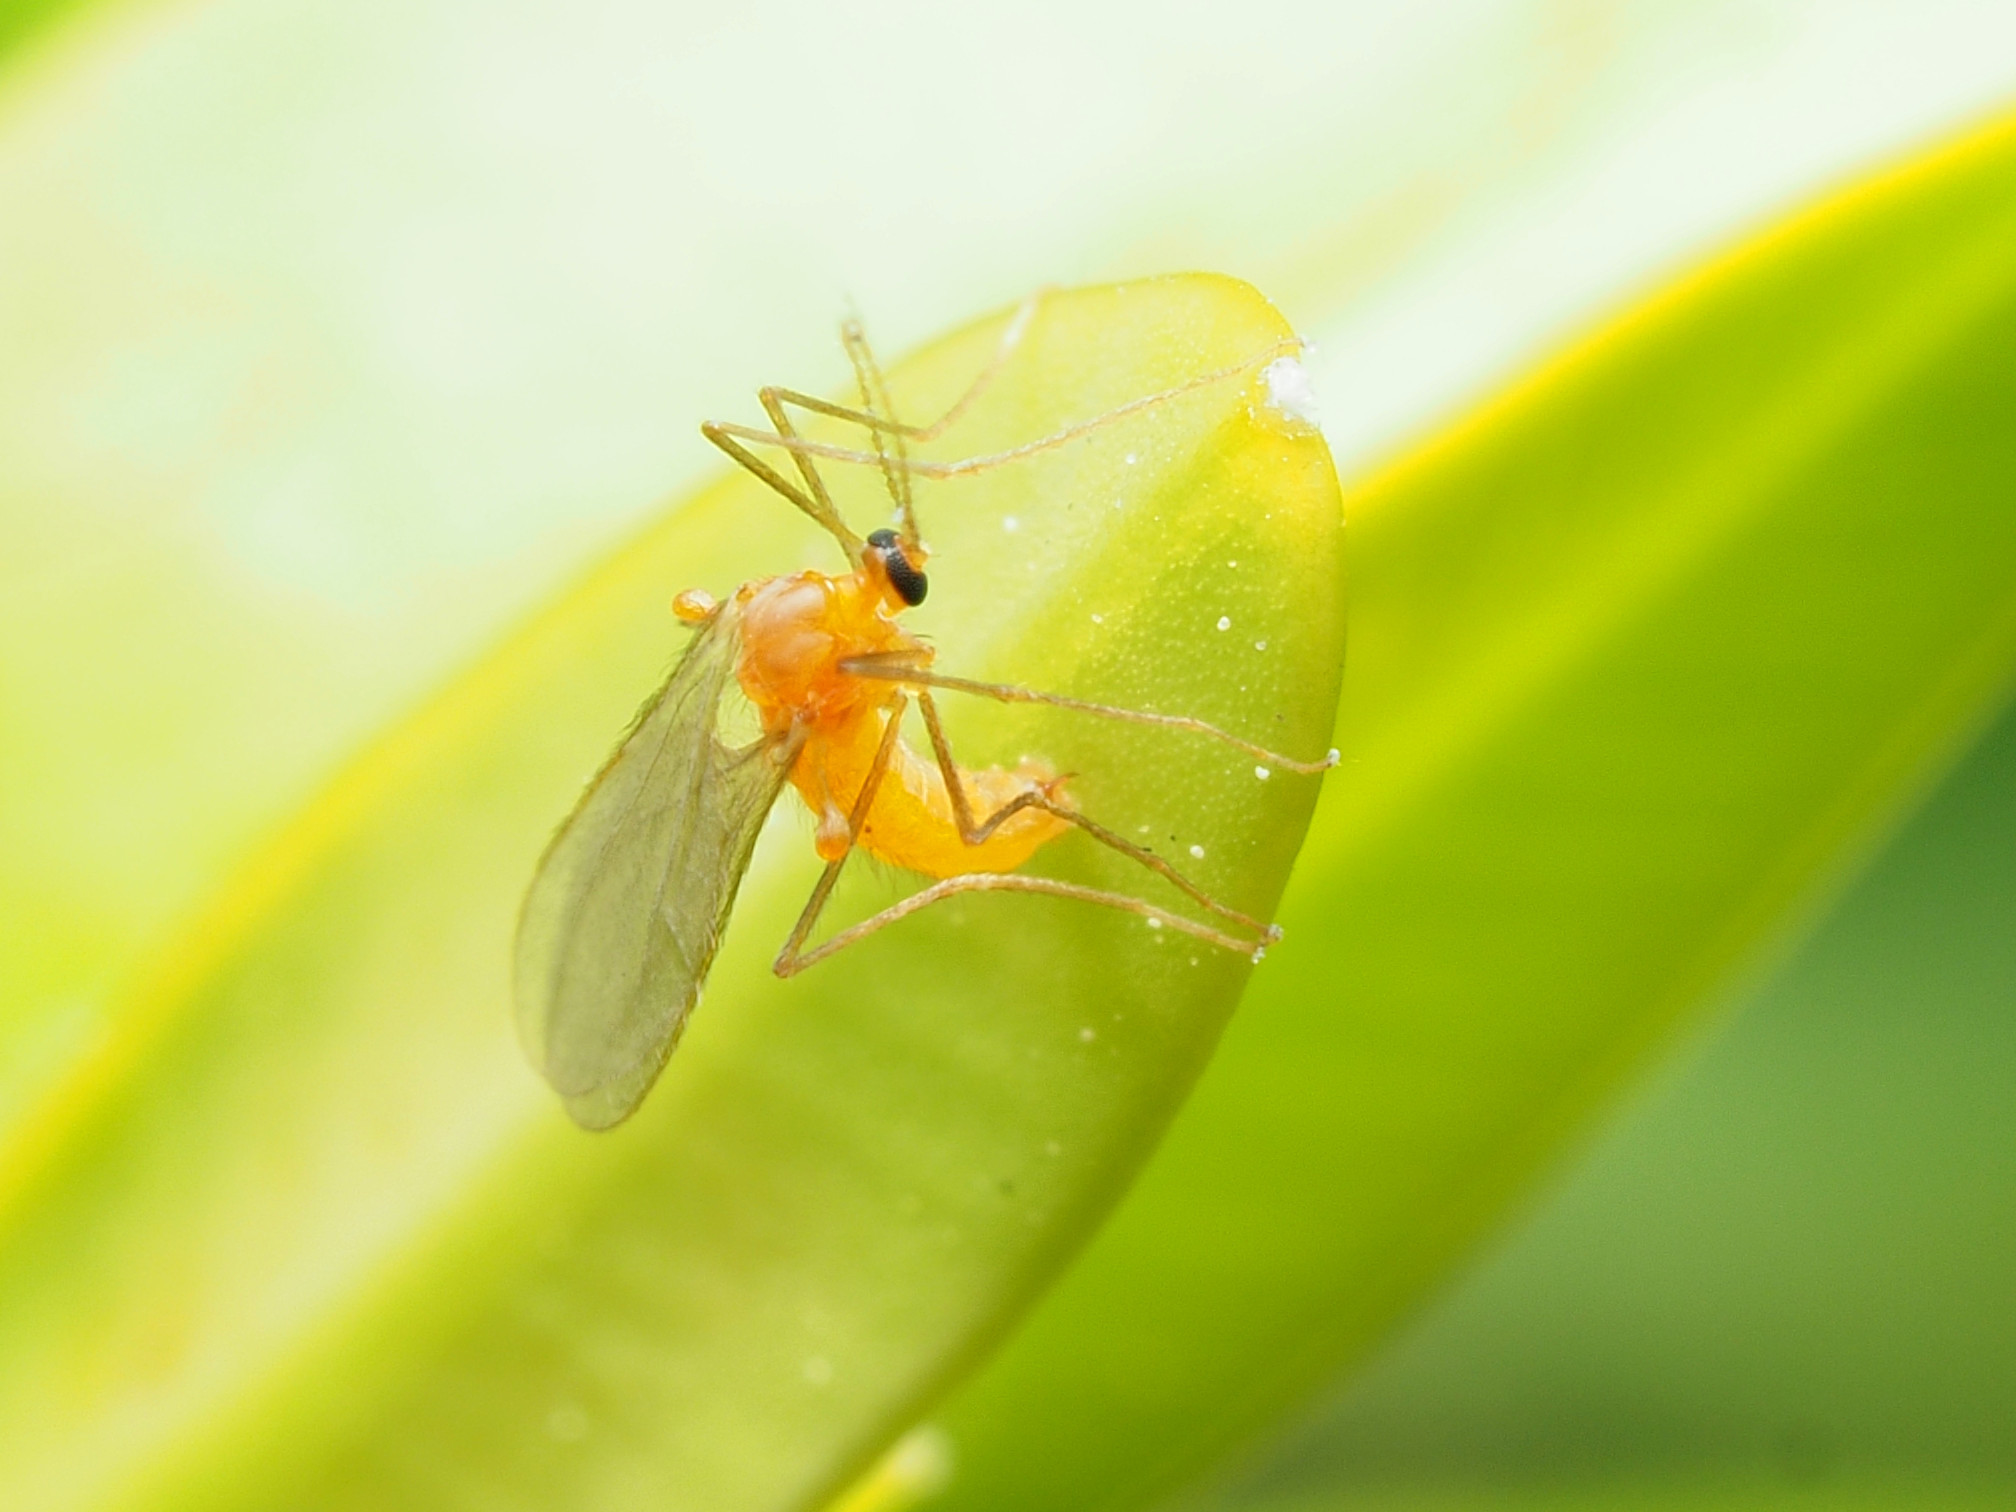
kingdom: Animalia
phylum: Arthropoda
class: Insecta
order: Diptera
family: Cecidomyiidae
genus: Monarthropalpus
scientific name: Monarthropalpus flavus
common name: Boxwood leafminer
